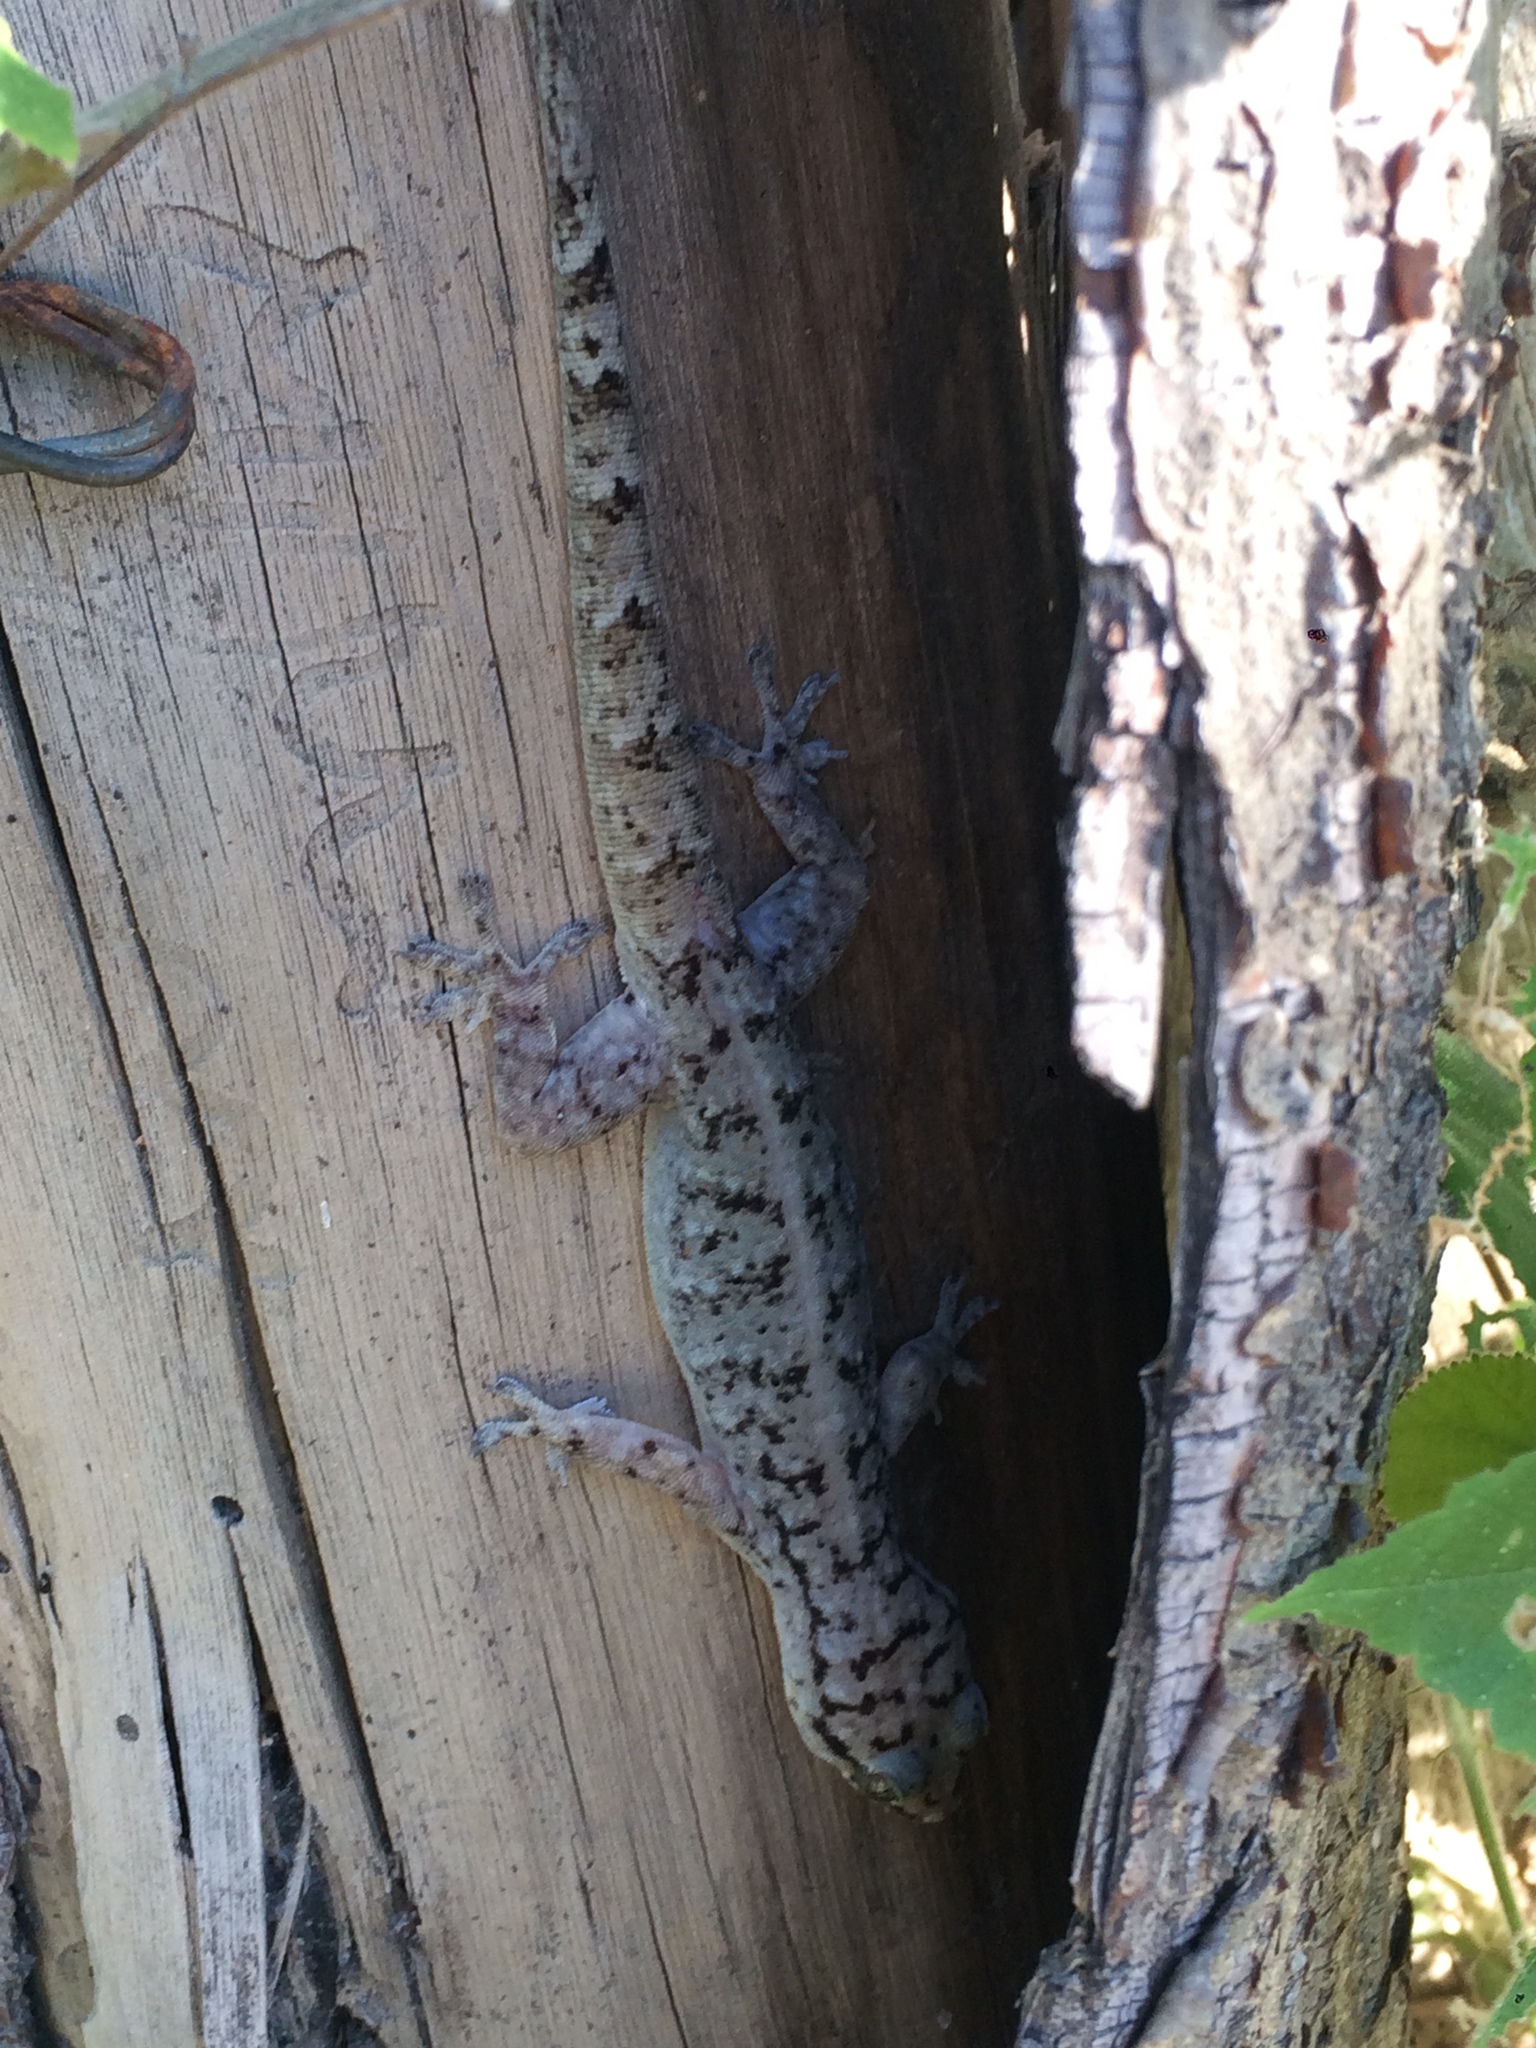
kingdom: Animalia
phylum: Chordata
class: Squamata
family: Phyllodactylidae
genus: Phyllopezus
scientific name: Phyllopezus pollicaris
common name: Brazilian gecko
